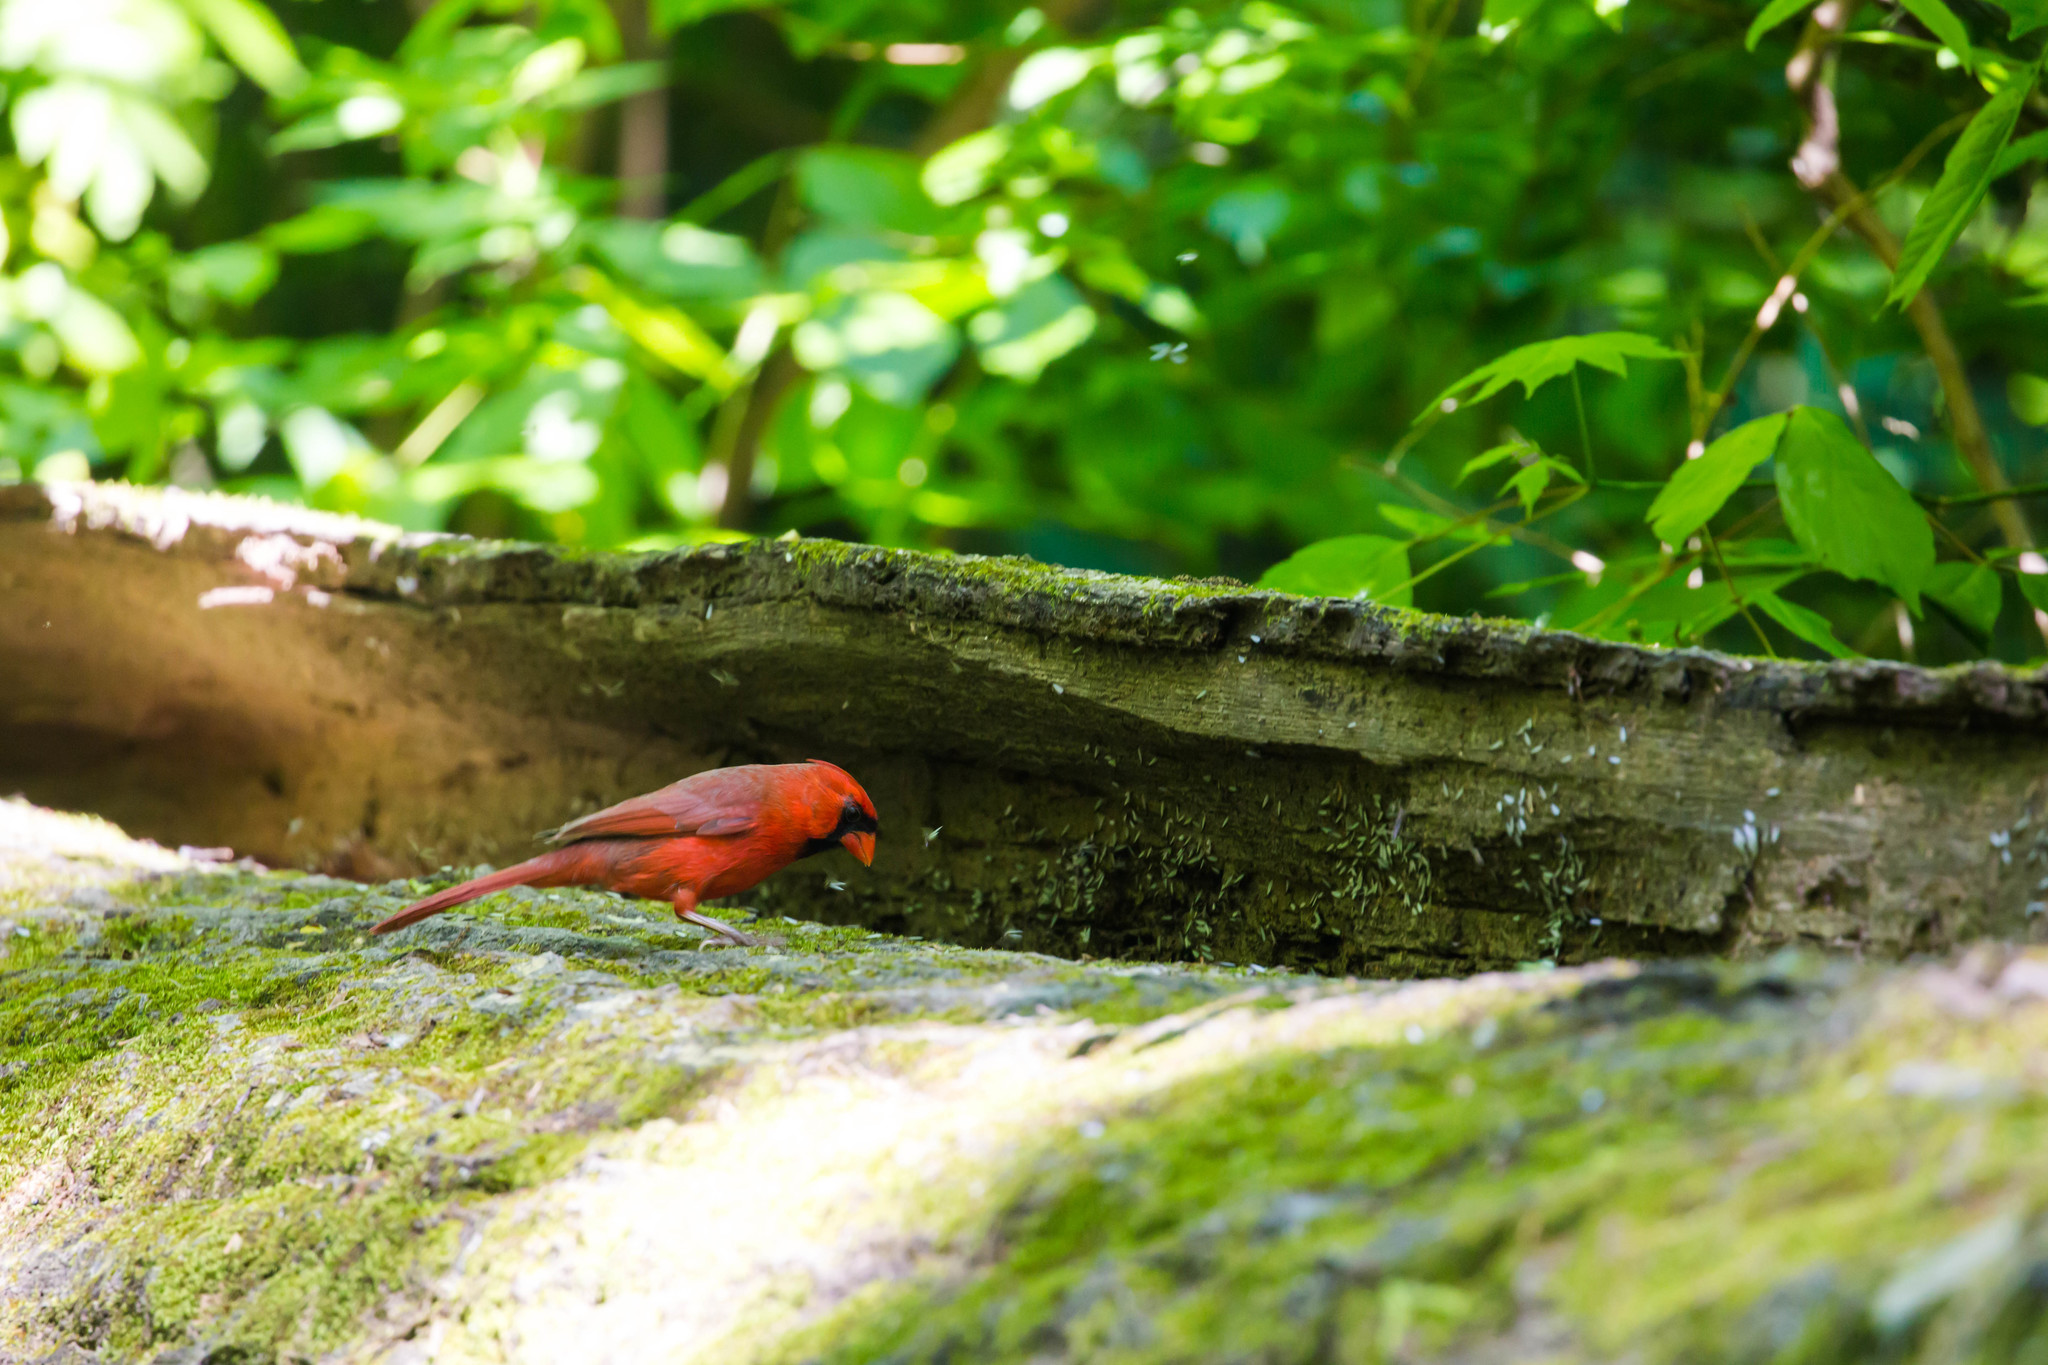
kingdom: Animalia
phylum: Chordata
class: Aves
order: Passeriformes
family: Cardinalidae
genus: Cardinalis
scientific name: Cardinalis cardinalis
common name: Northern cardinal
